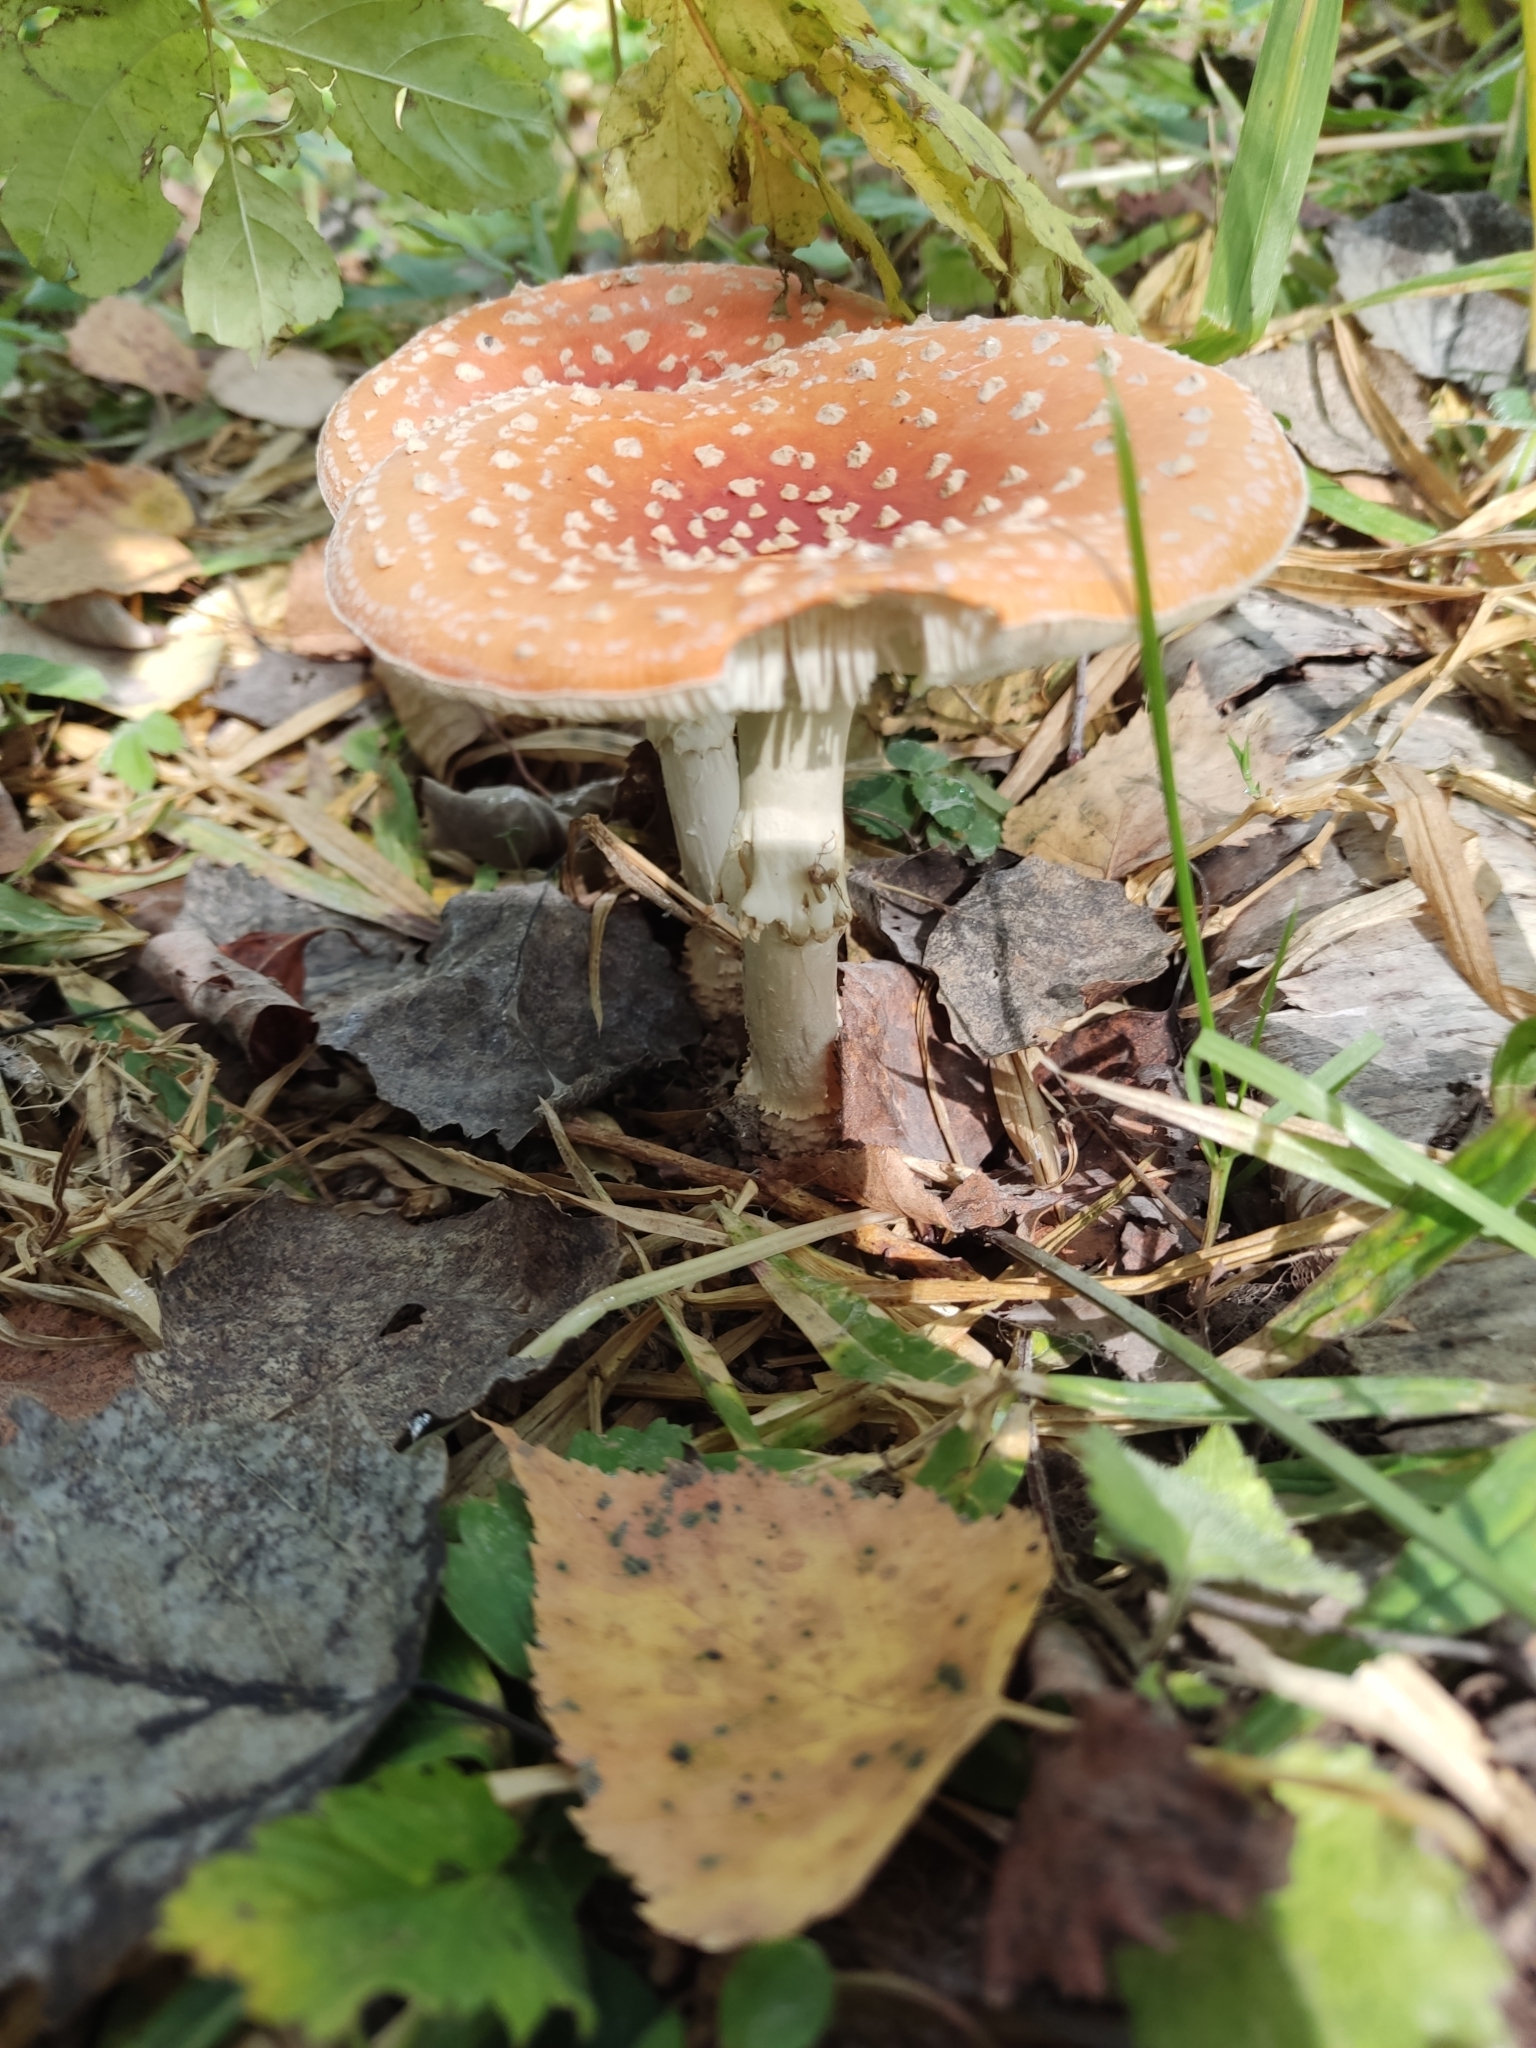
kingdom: Fungi
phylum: Basidiomycota
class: Agaricomycetes
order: Agaricales
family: Amanitaceae
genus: Amanita
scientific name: Amanita muscaria
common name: Fly agaric
